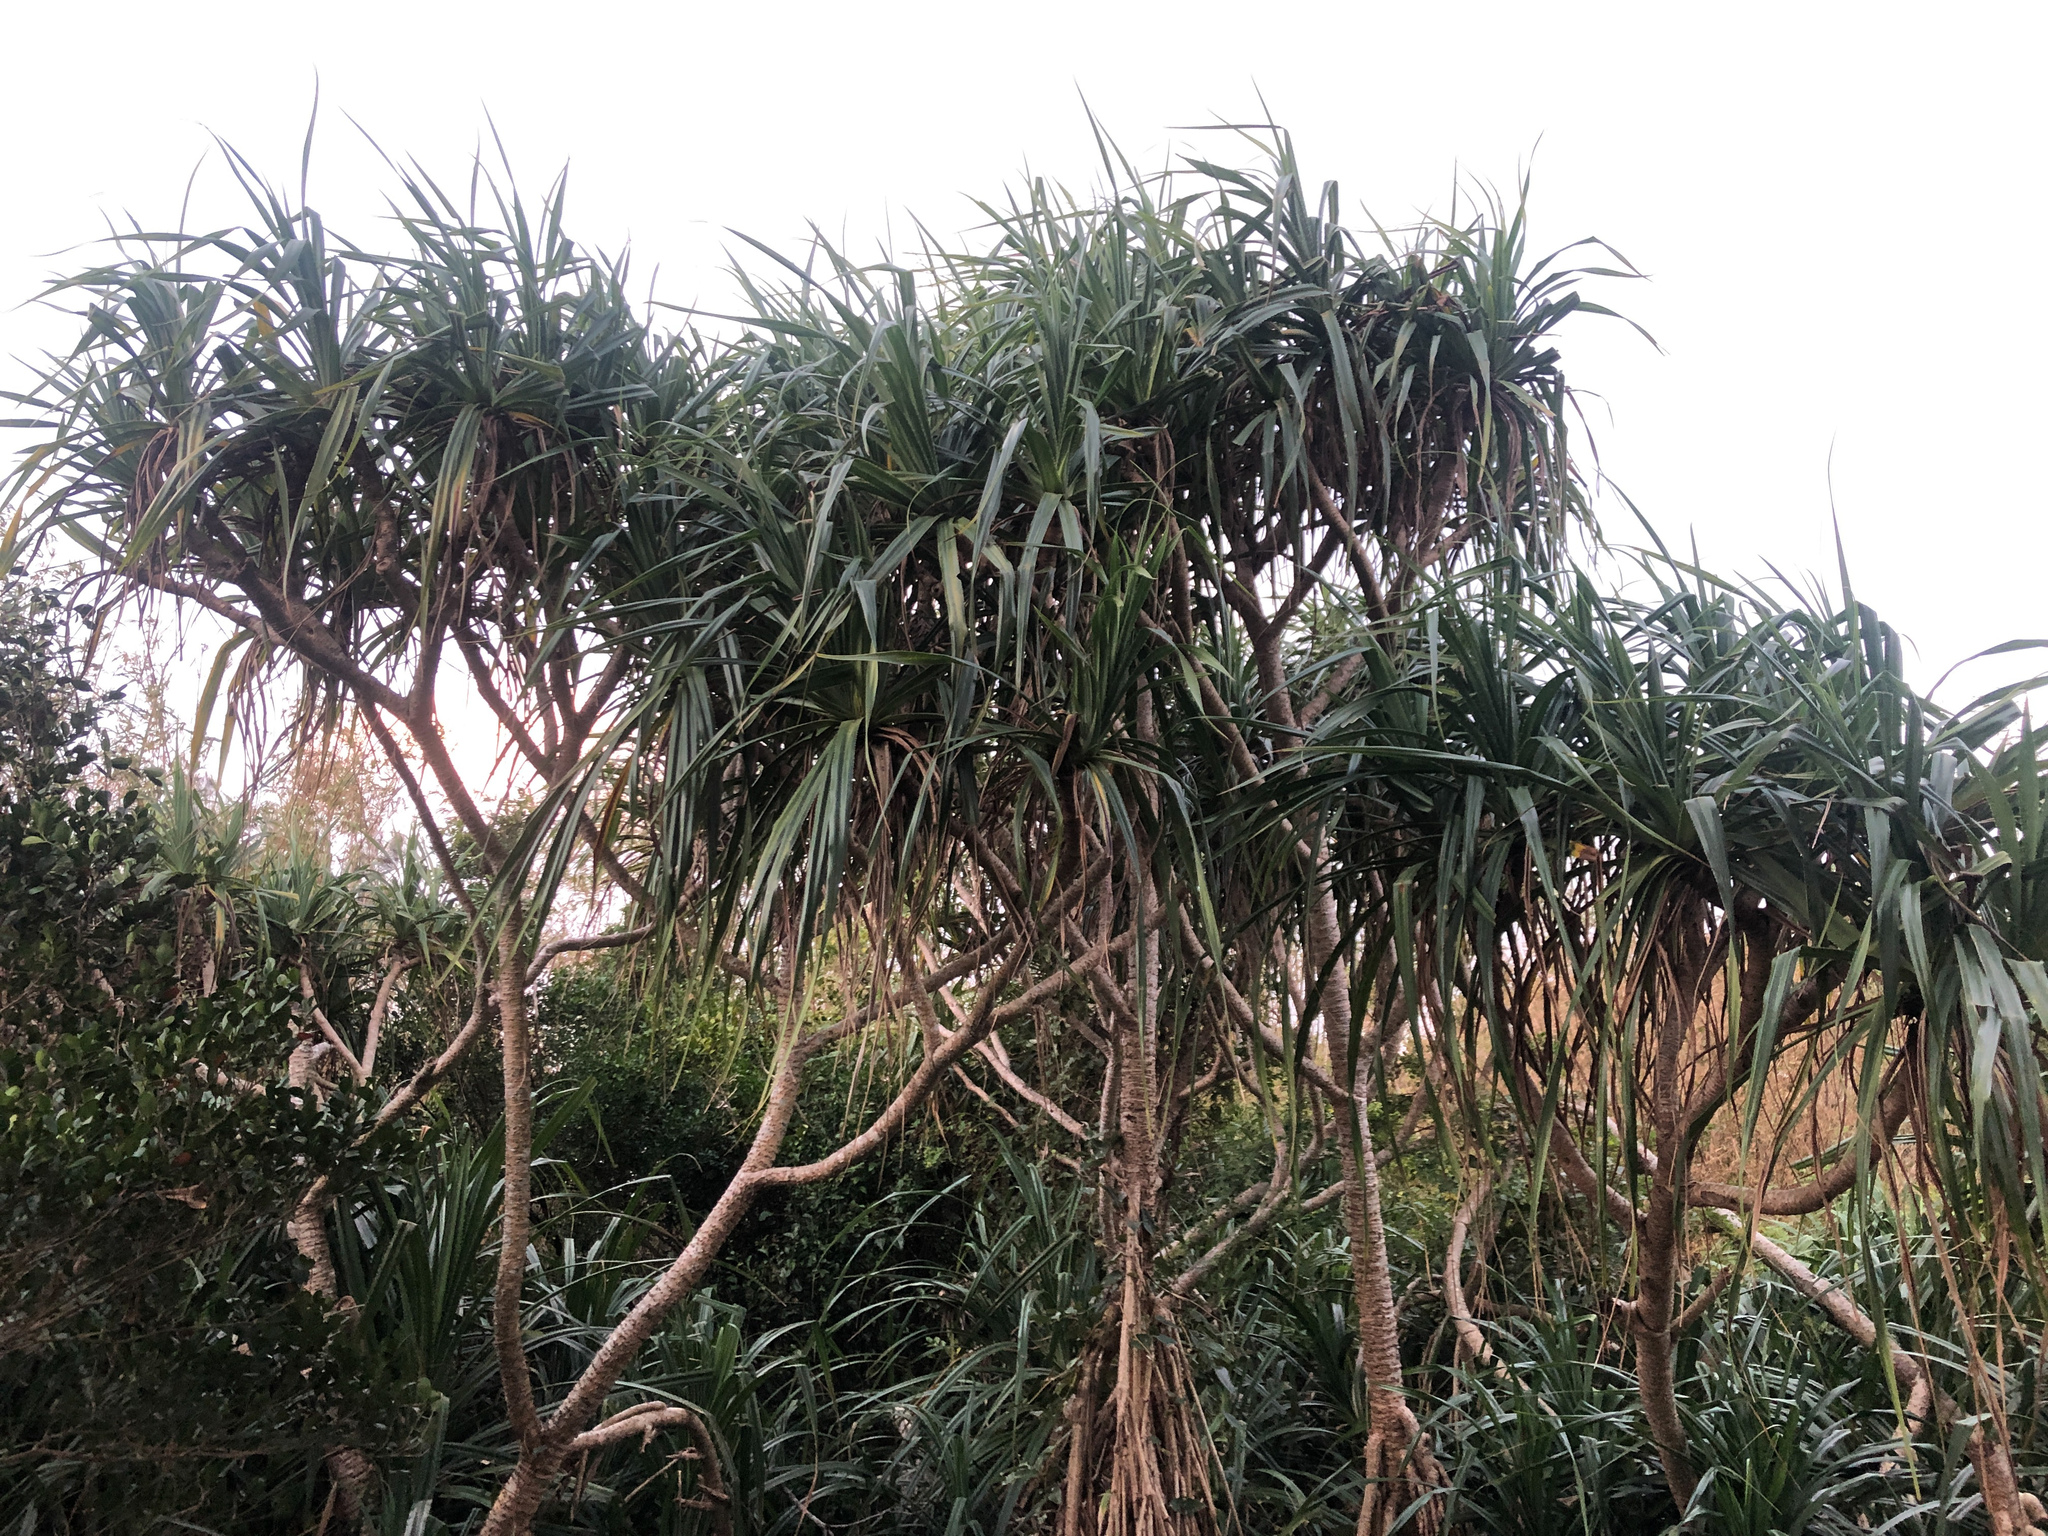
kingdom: Plantae
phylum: Tracheophyta
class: Liliopsida
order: Pandanales
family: Pandanaceae
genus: Pandanus
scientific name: Pandanus odorifer
